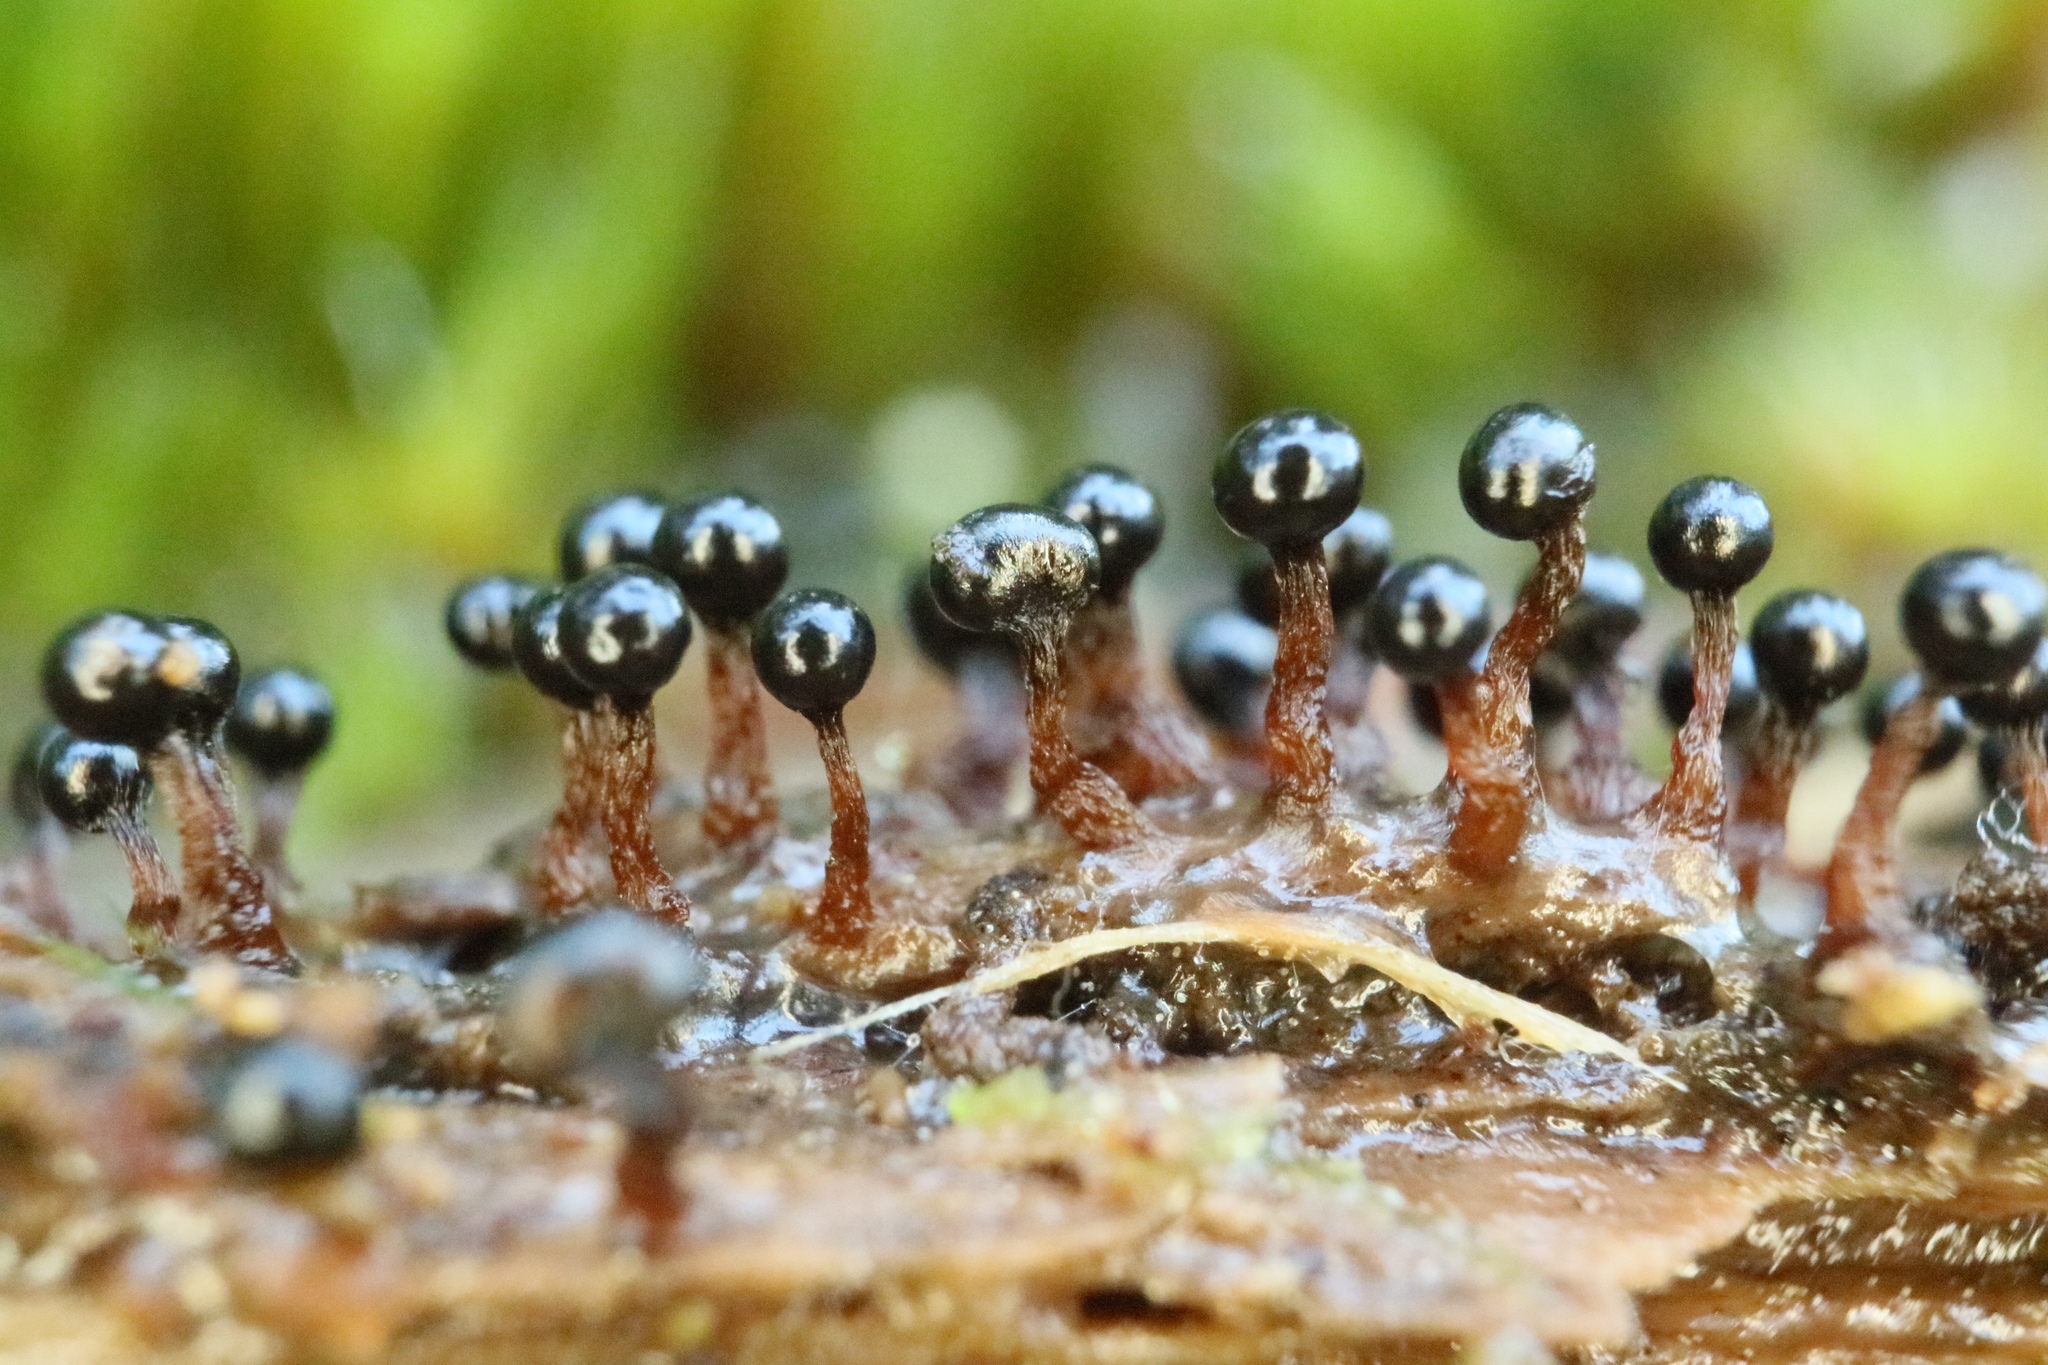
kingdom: Protozoa
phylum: Mycetozoa
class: Myxomycetes
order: Trichiales
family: Trichiaceae
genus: Metatrichia
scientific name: Metatrichia floriformis
